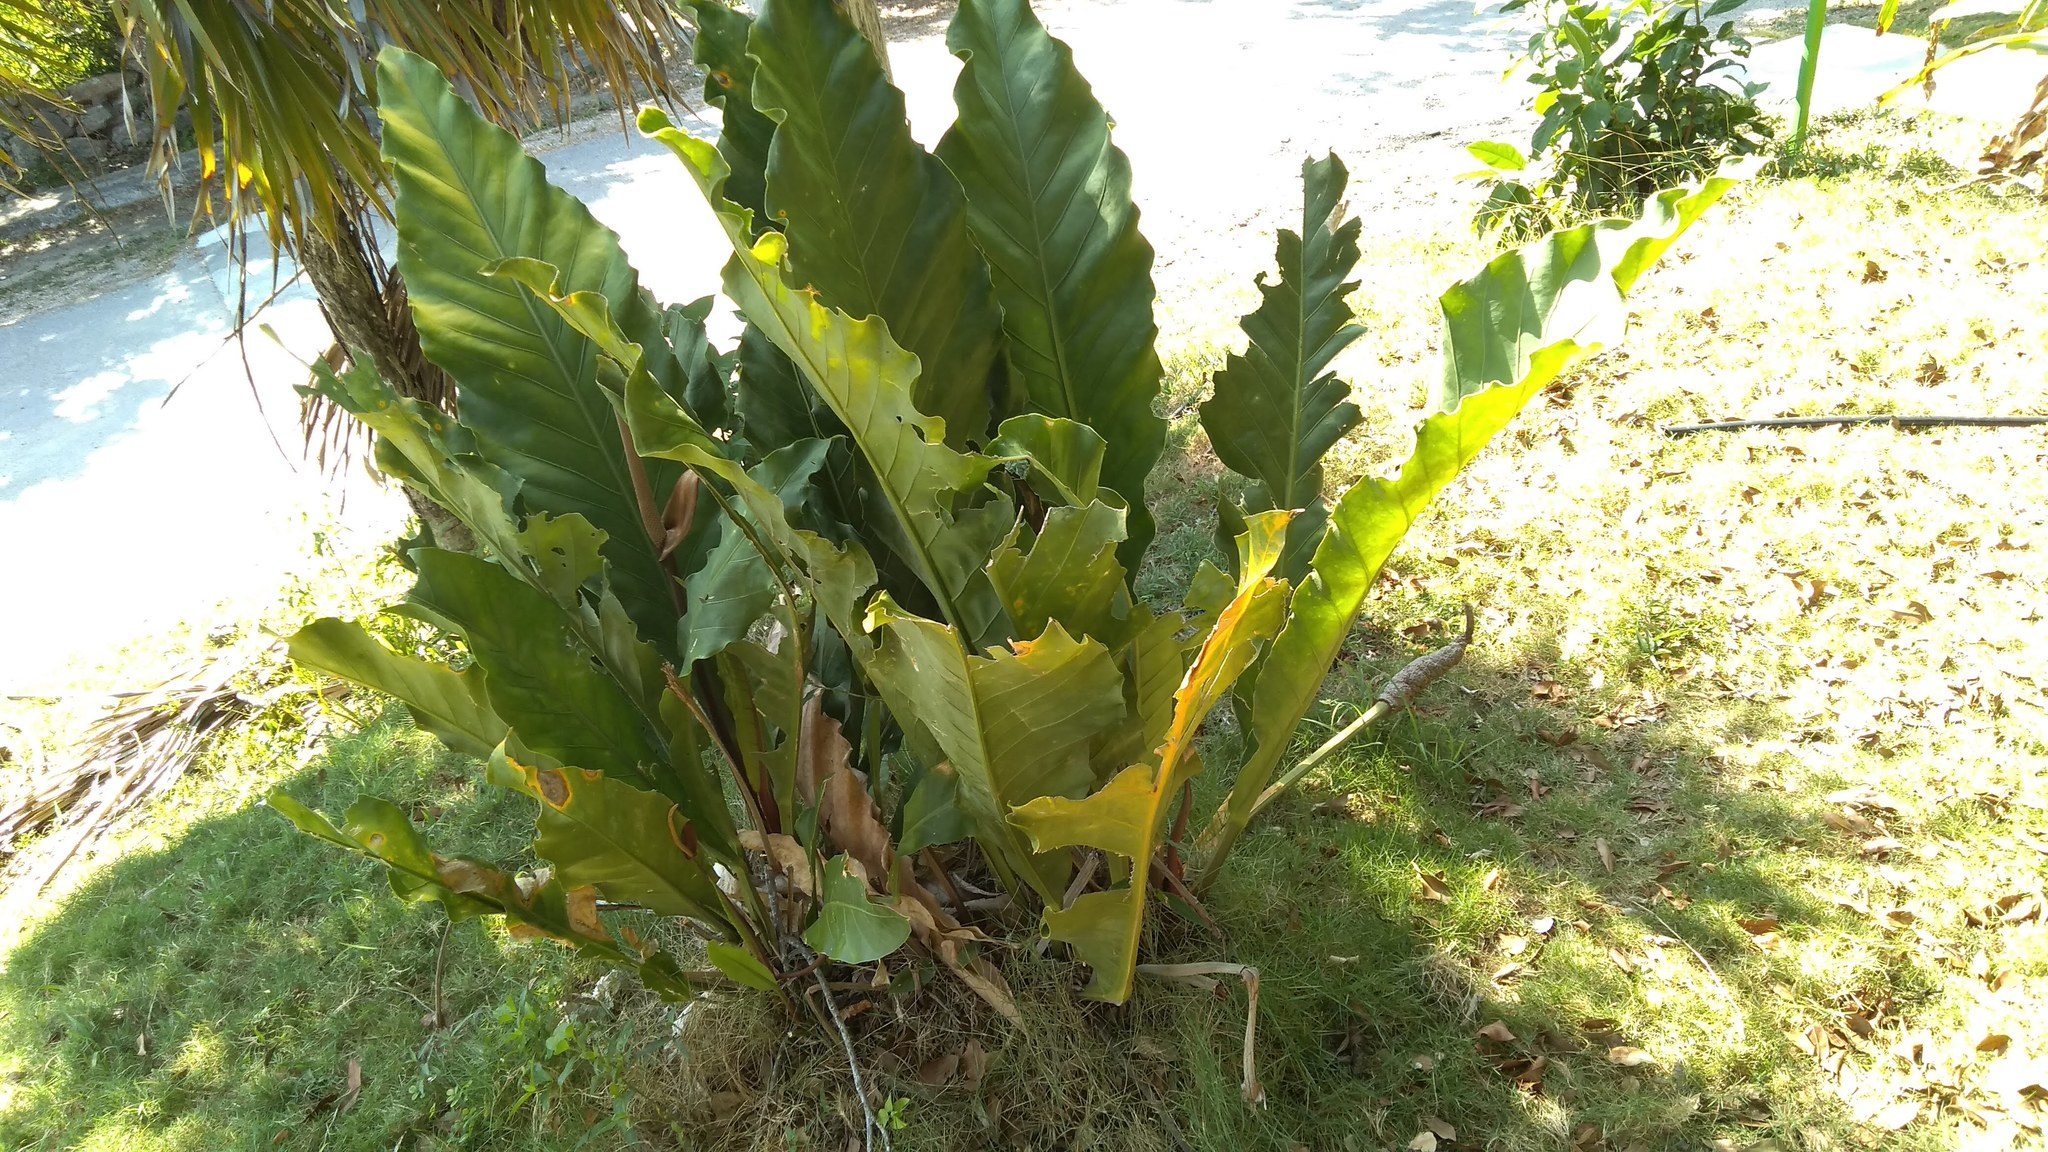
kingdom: Plantae
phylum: Tracheophyta
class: Liliopsida
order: Alismatales
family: Araceae
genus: Anthurium
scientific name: Anthurium schlechtendalii
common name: Laceleaf
